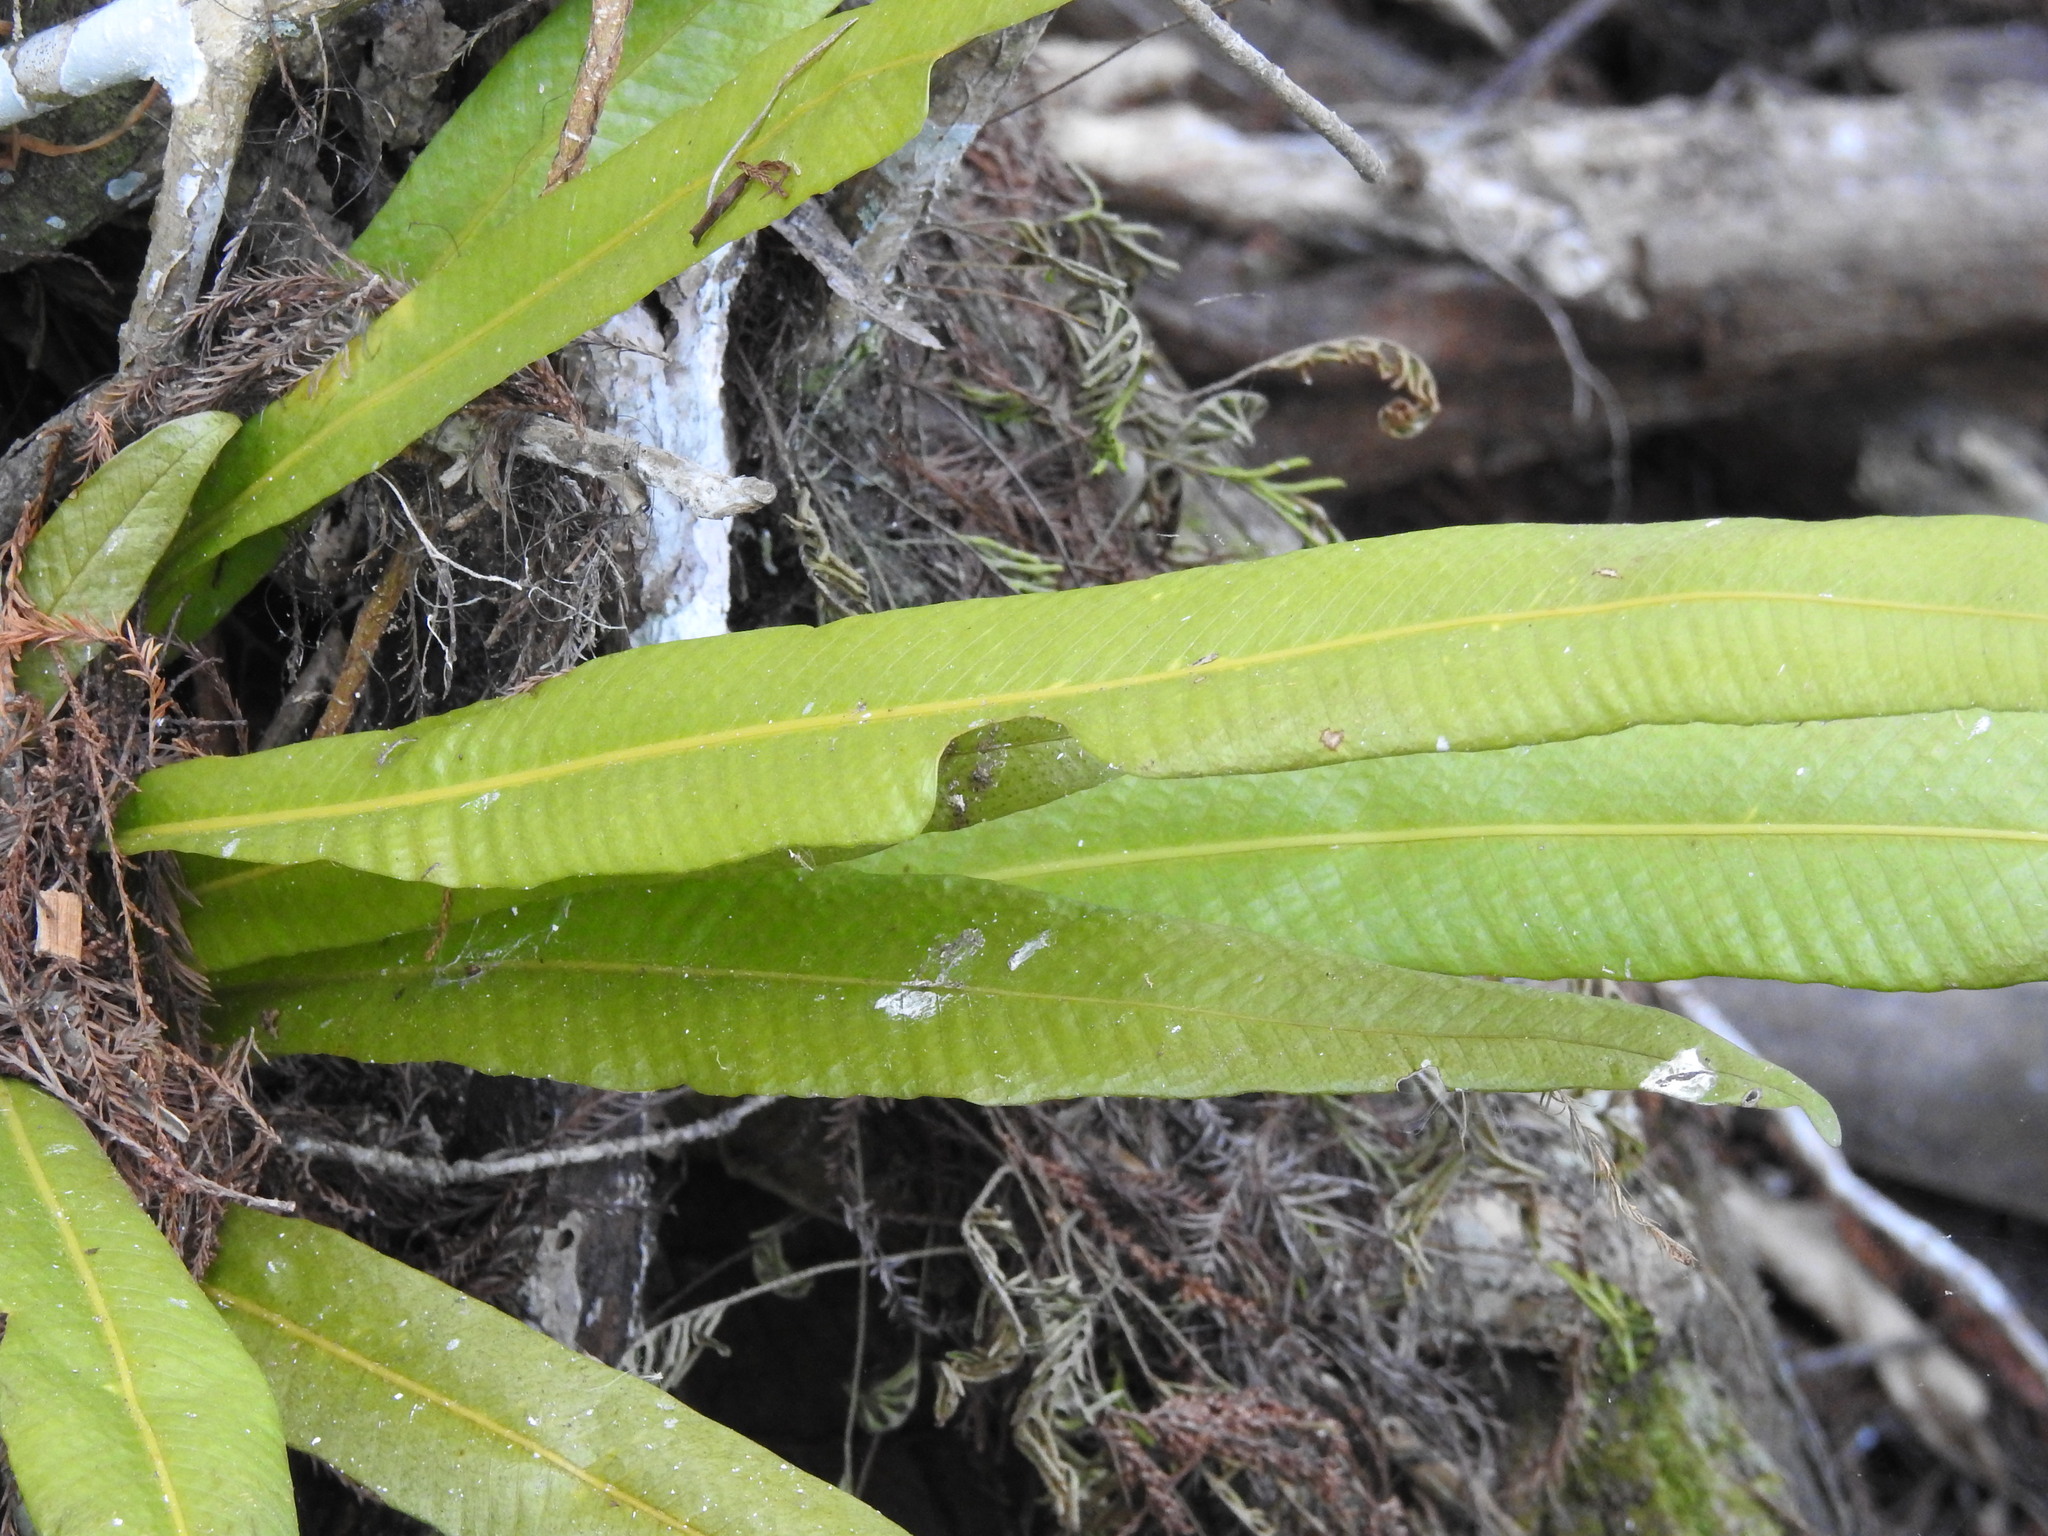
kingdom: Plantae
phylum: Tracheophyta
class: Polypodiopsida
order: Polypodiales
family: Polypodiaceae
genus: Campyloneurum
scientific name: Campyloneurum phyllitidis
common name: Cow-tongue fern
